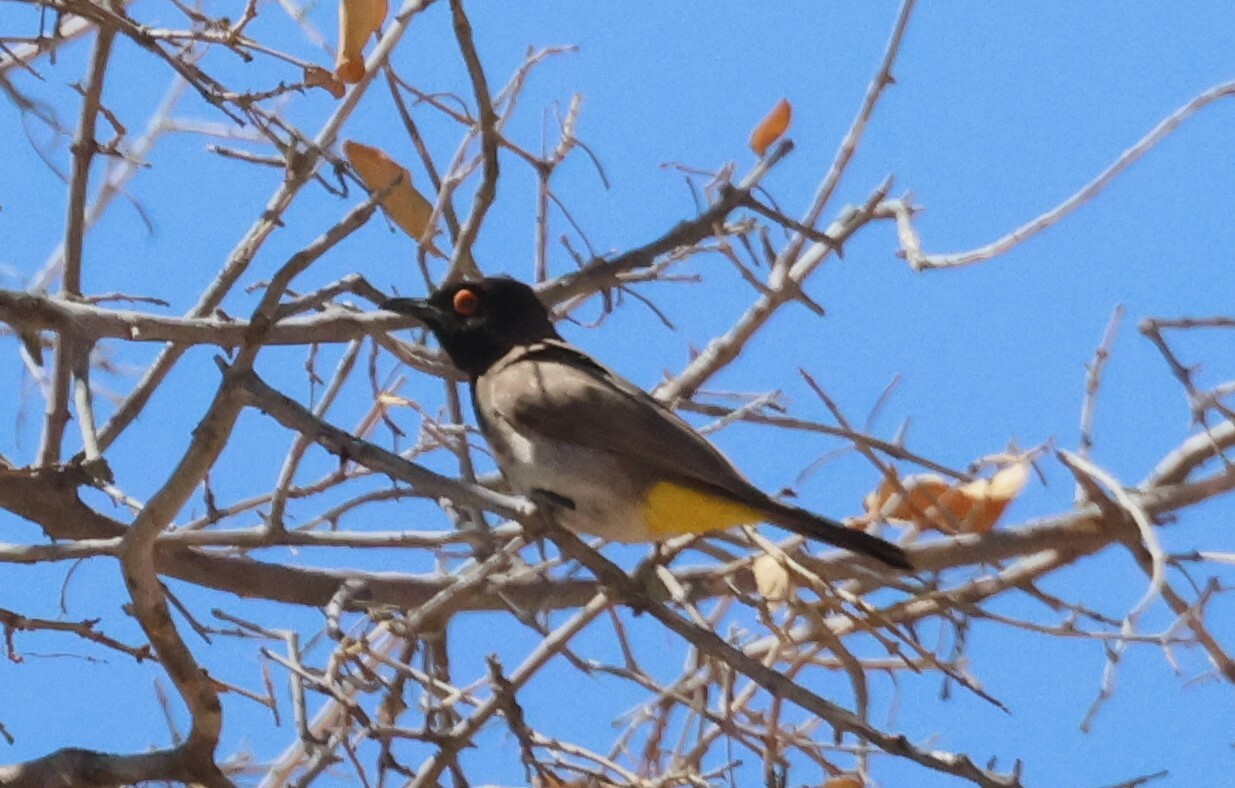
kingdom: Animalia
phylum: Chordata
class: Aves
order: Passeriformes
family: Pycnonotidae
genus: Pycnonotus
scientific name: Pycnonotus nigricans
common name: African red-eyed bulbul
